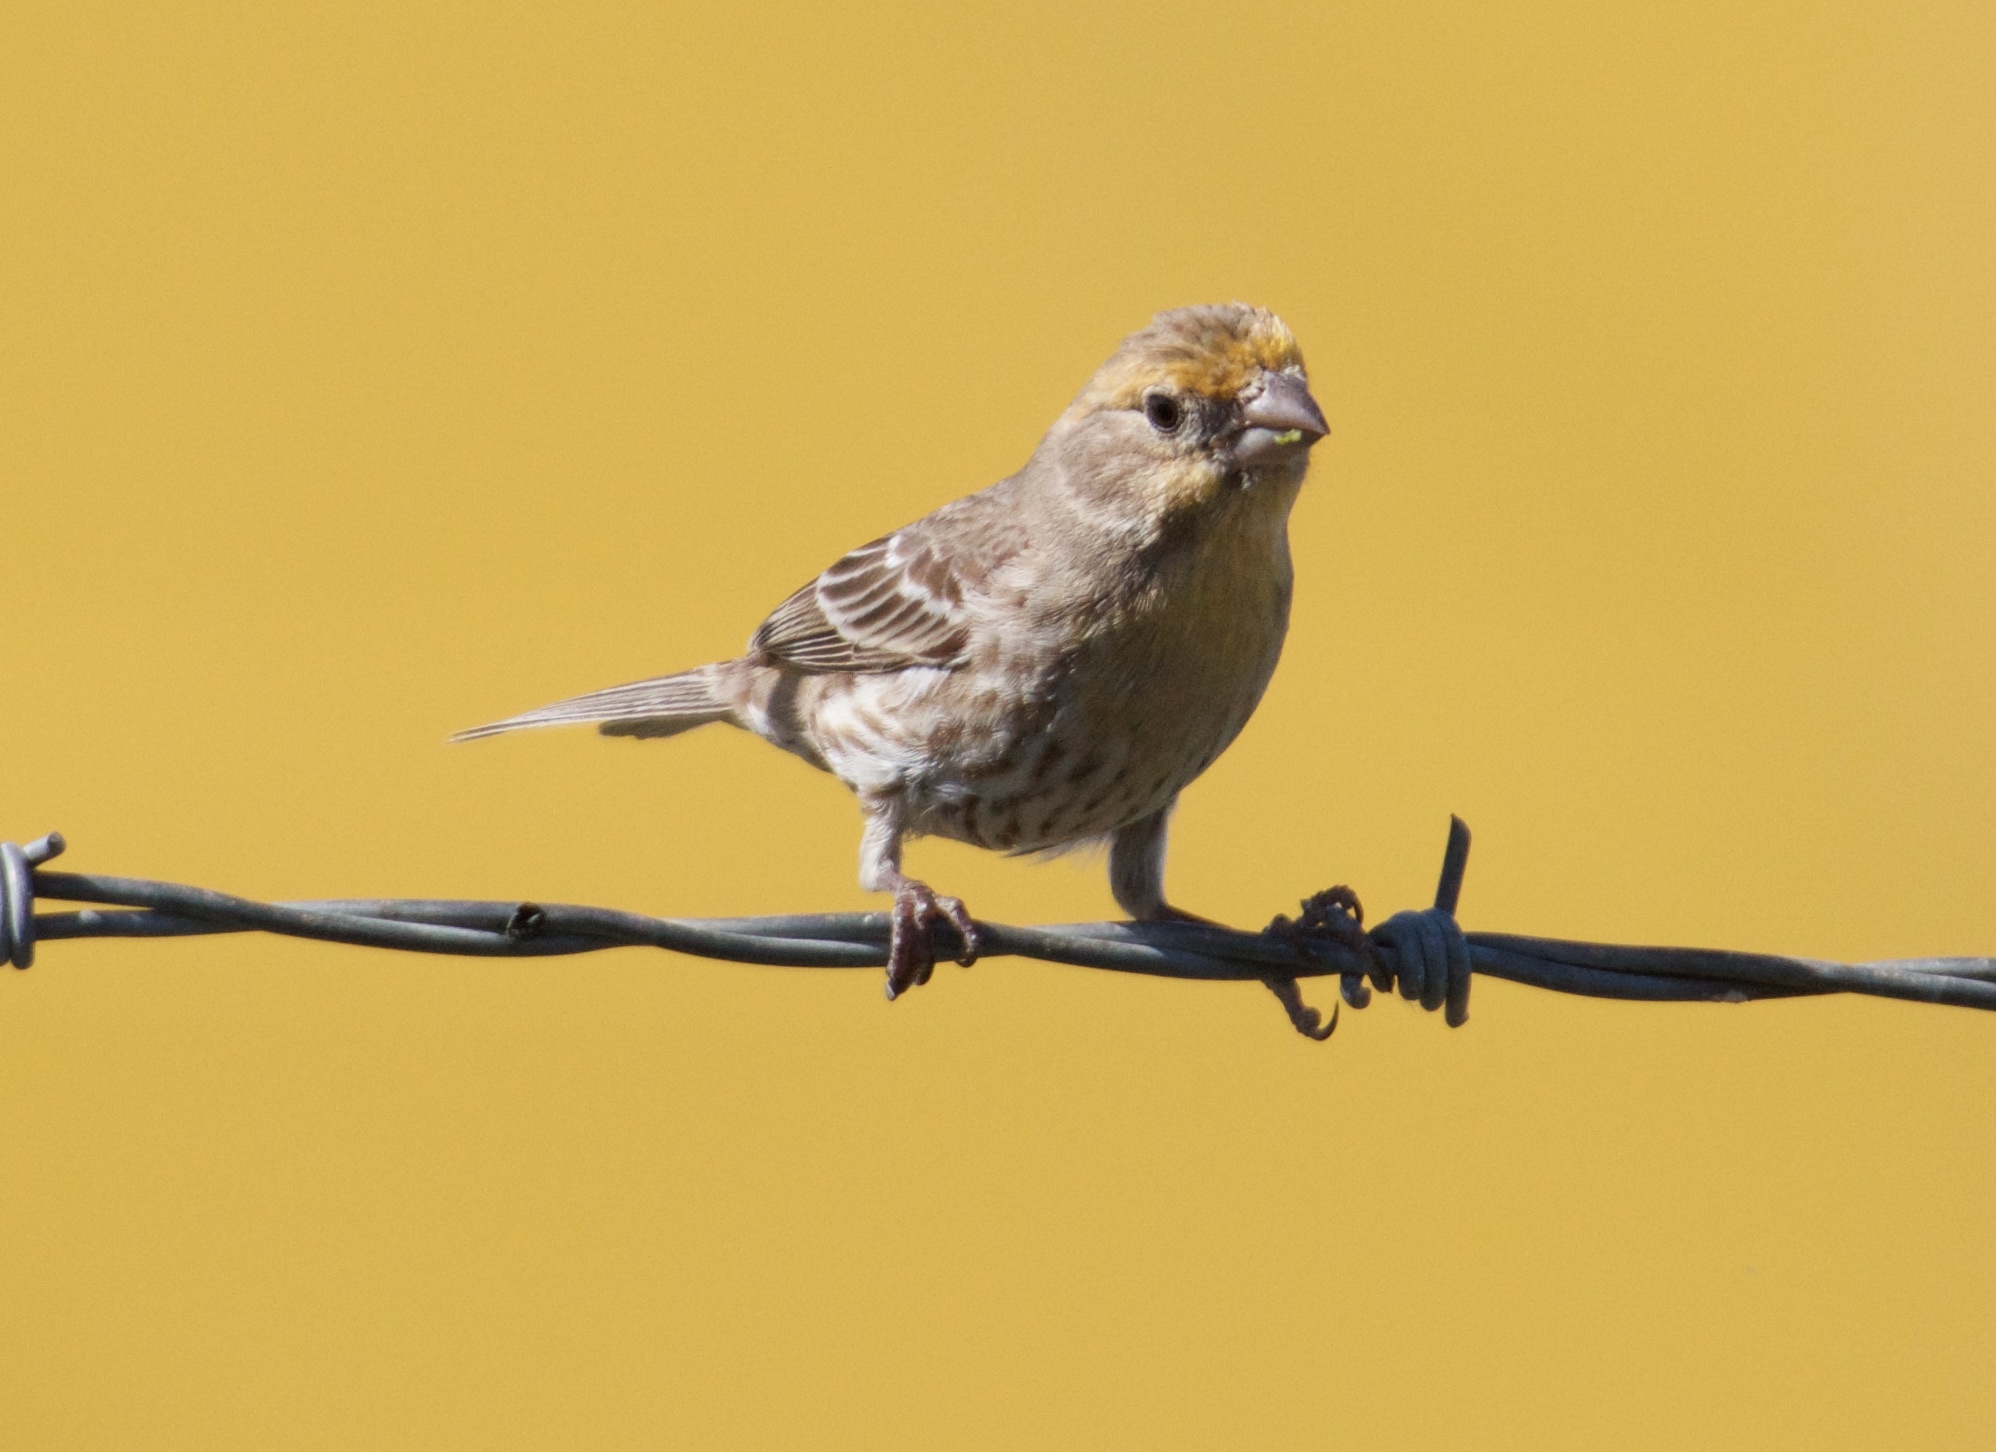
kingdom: Animalia
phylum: Chordata
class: Aves
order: Passeriformes
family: Fringillidae
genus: Haemorhous
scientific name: Haemorhous mexicanus
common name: House finch
